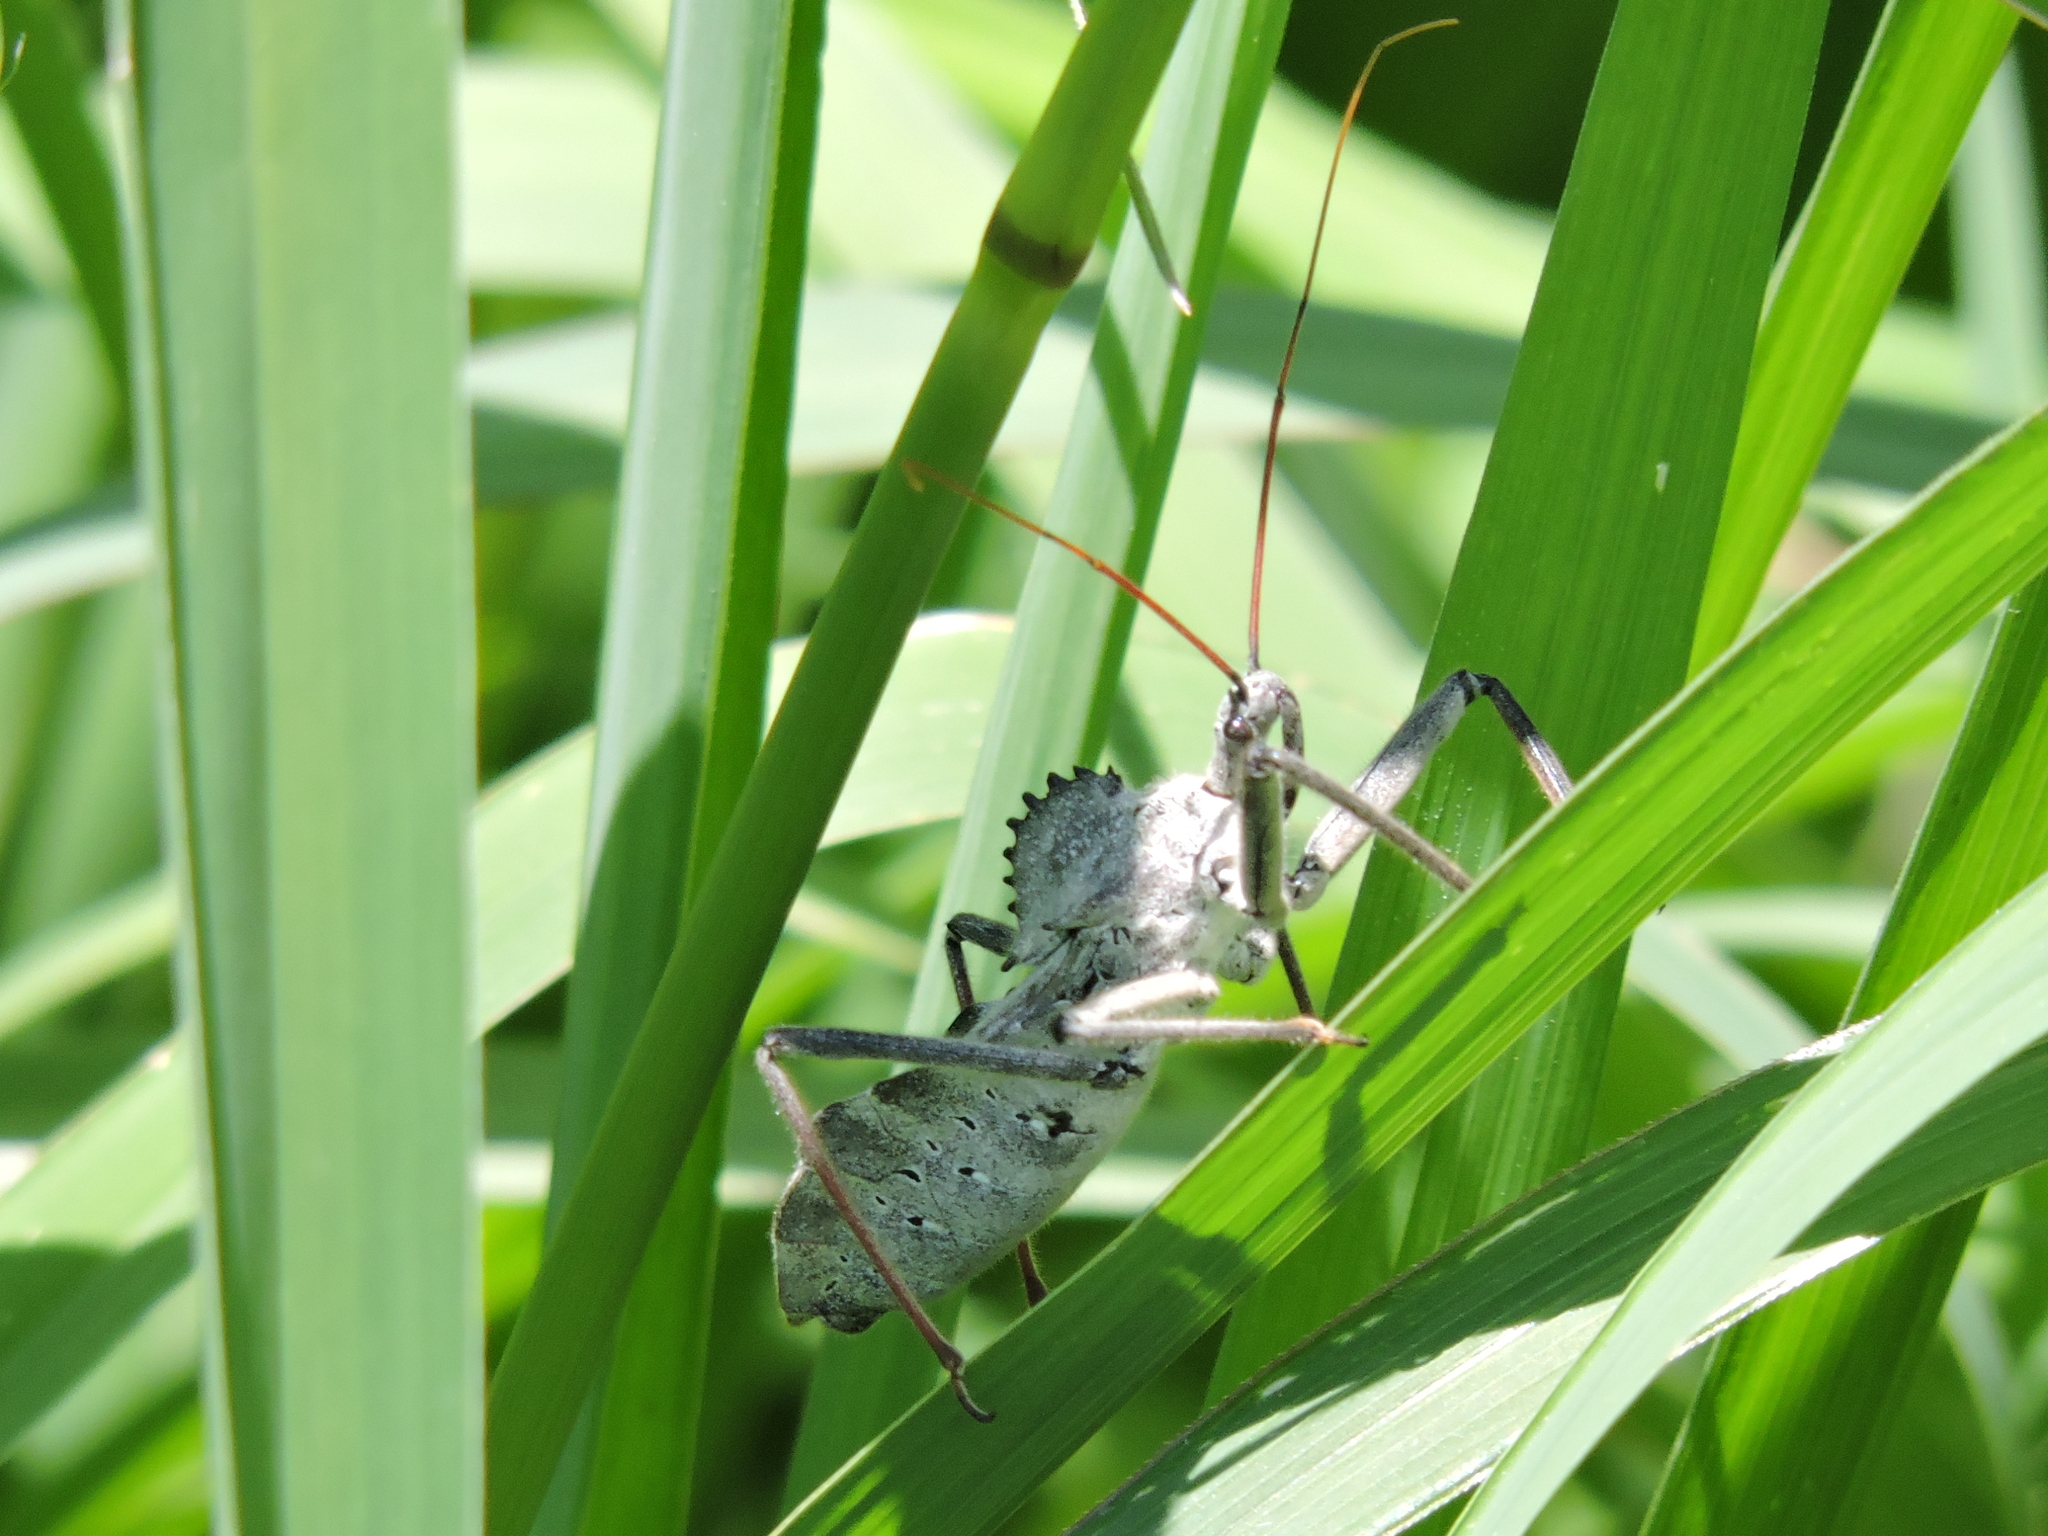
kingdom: Animalia
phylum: Arthropoda
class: Insecta
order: Hemiptera
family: Reduviidae
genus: Arilus
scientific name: Arilus cristatus
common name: North american wheel bug
